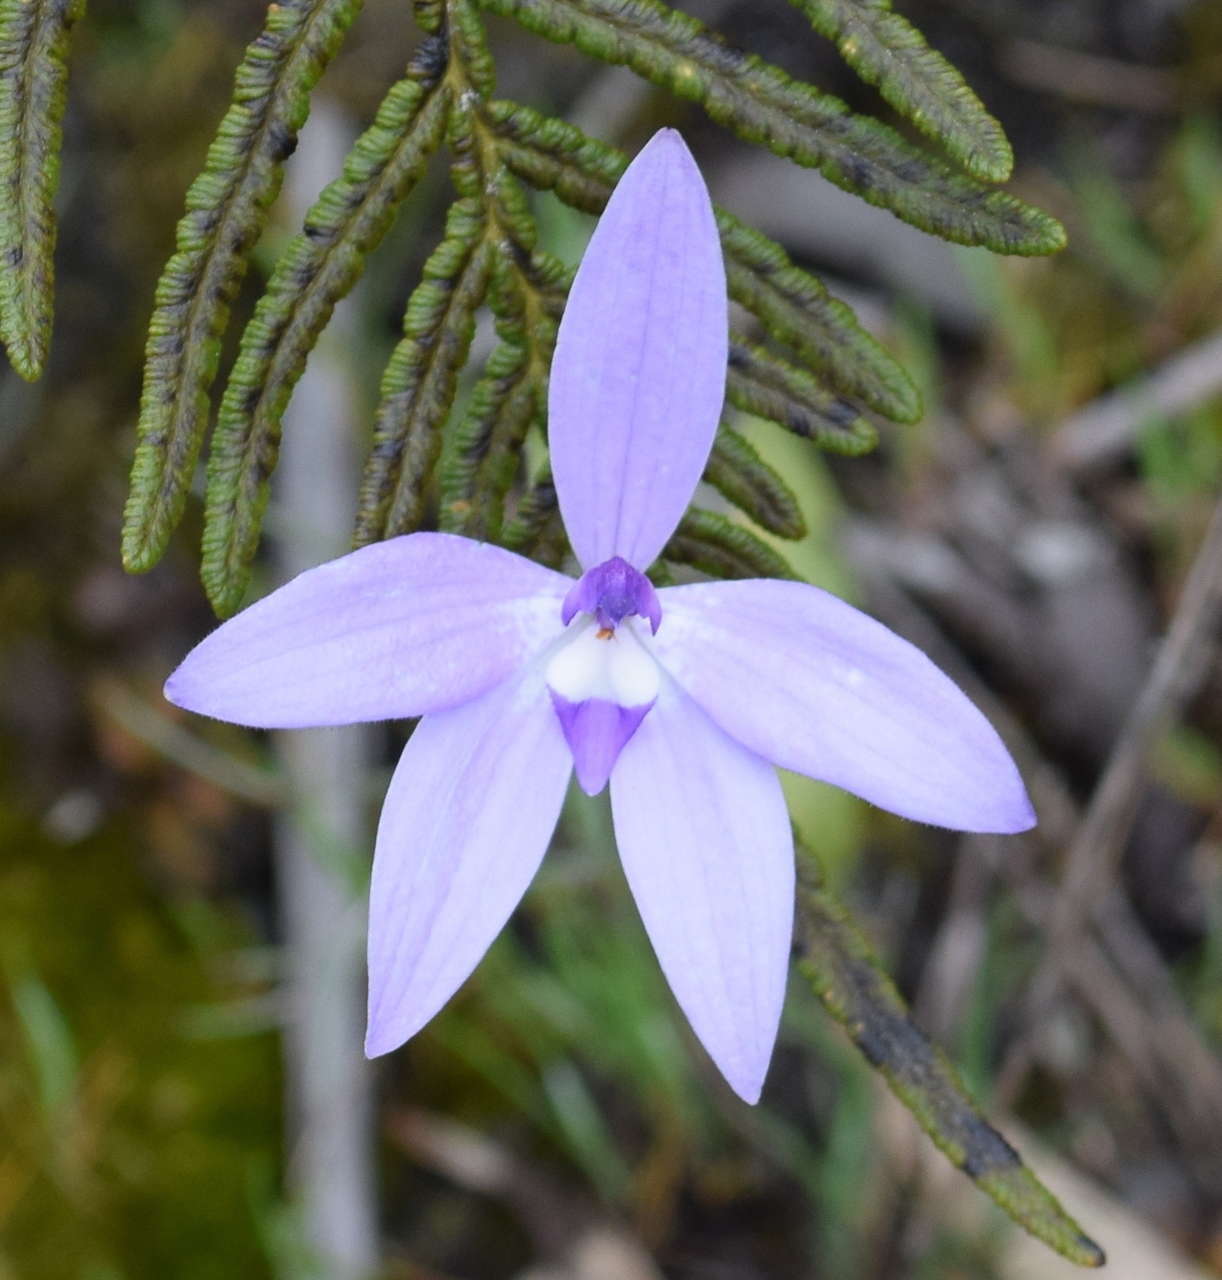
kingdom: Plantae
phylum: Tracheophyta
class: Liliopsida
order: Asparagales
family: Orchidaceae
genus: Caladenia
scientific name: Caladenia major
